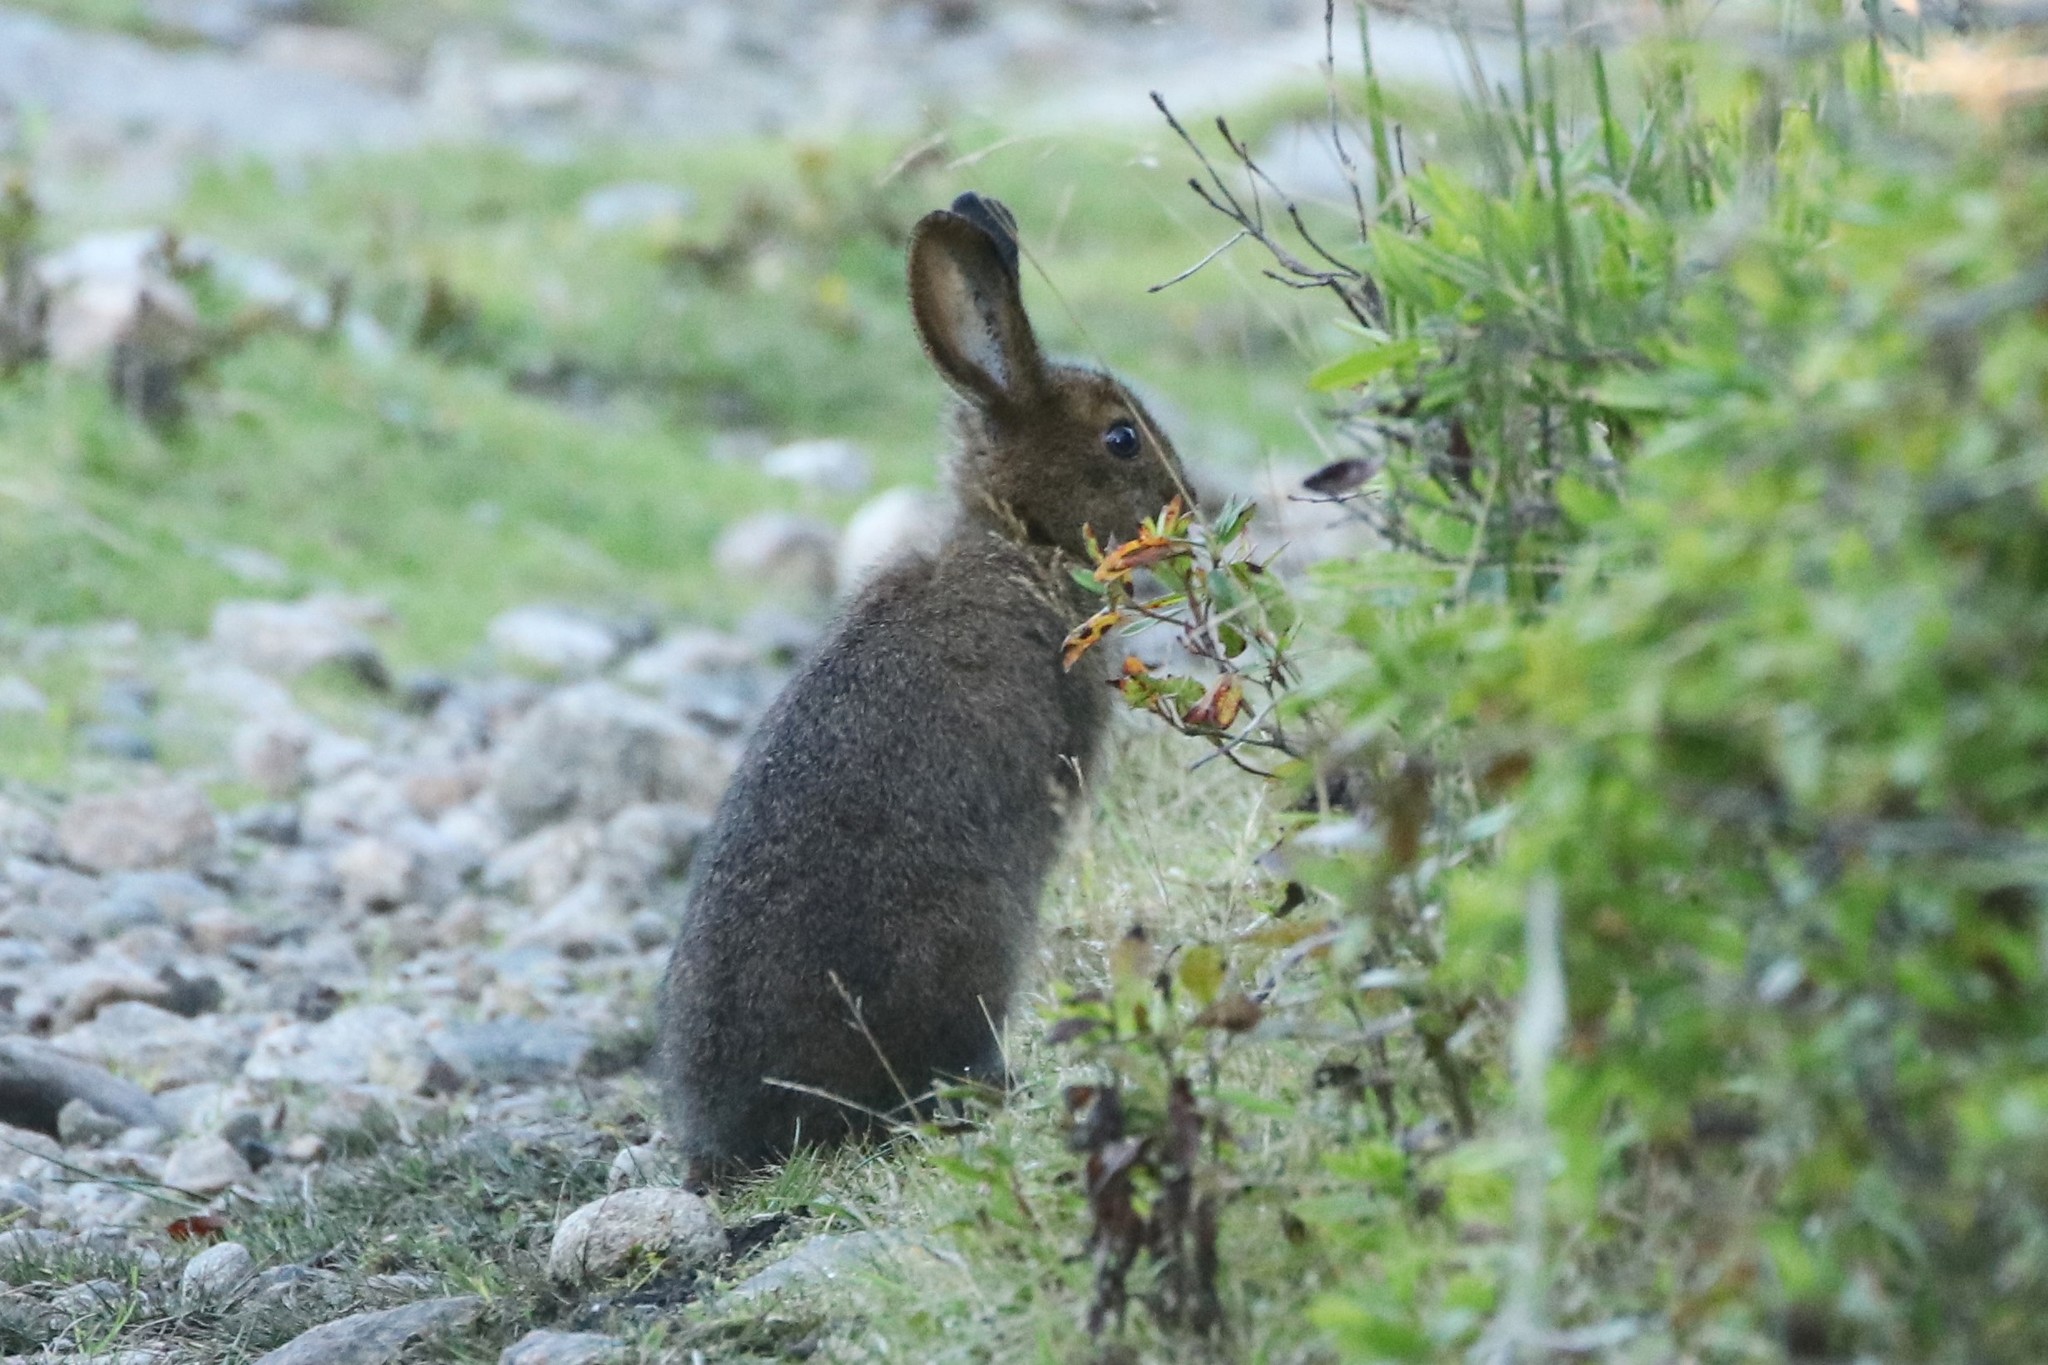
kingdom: Animalia
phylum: Chordata
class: Mammalia
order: Lagomorpha
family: Leporidae
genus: Lepus
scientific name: Lepus americanus
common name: Snowshoe hare
